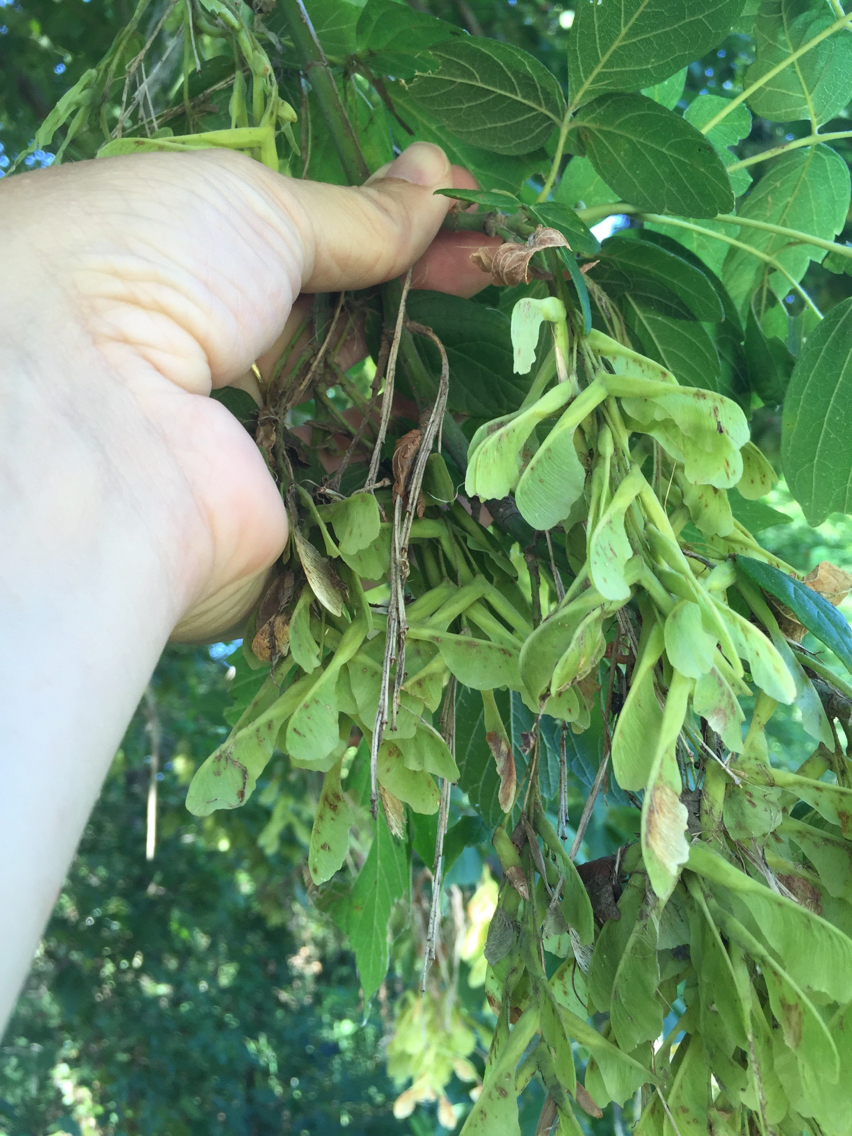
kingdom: Plantae
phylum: Tracheophyta
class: Magnoliopsida
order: Sapindales
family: Sapindaceae
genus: Acer
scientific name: Acer negundo
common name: Ashleaf maple
